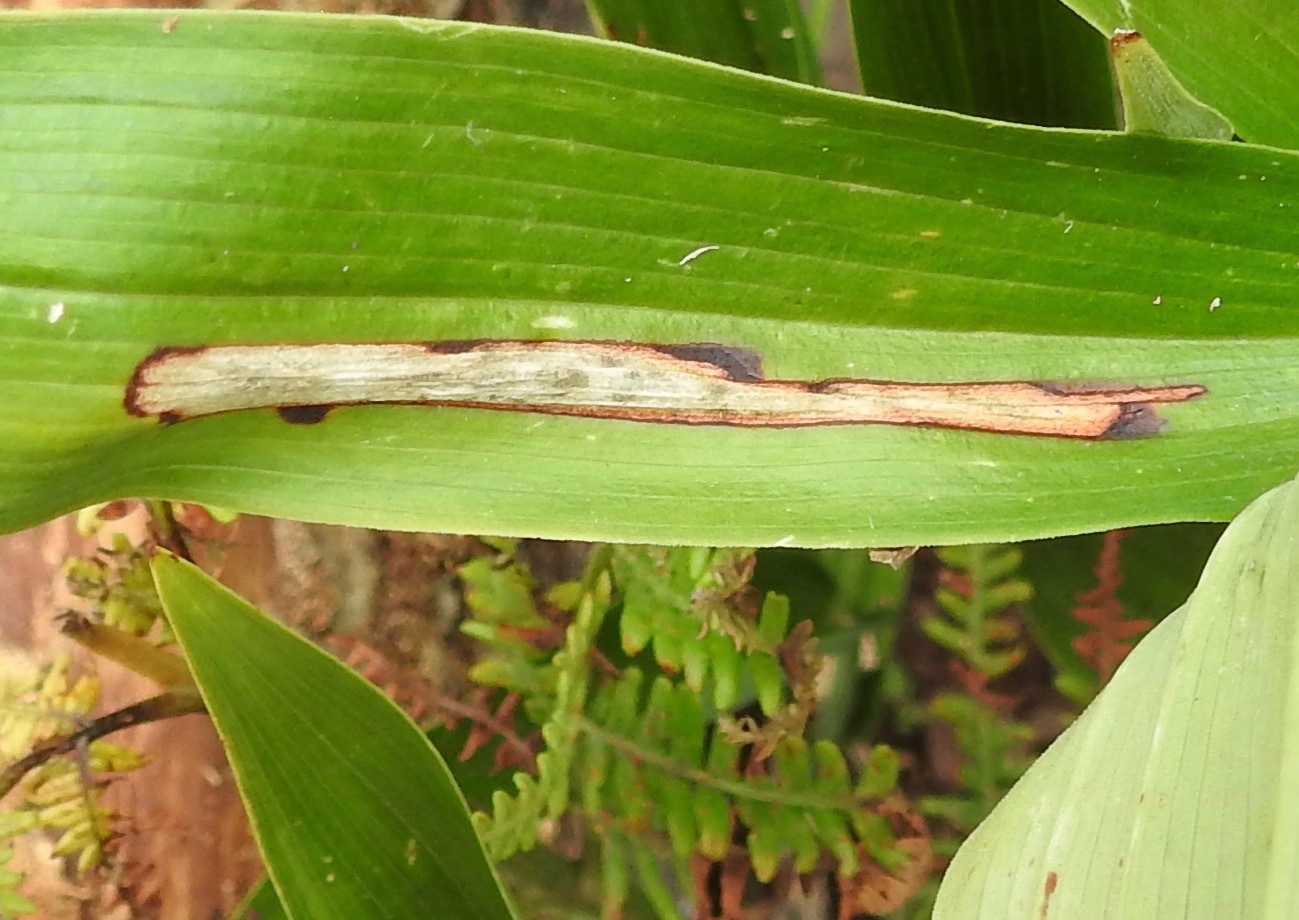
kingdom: Animalia
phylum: Arthropoda
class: Insecta
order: Diptera
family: Scathophagidae
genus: Synchysa
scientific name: Synchysa tricincta
